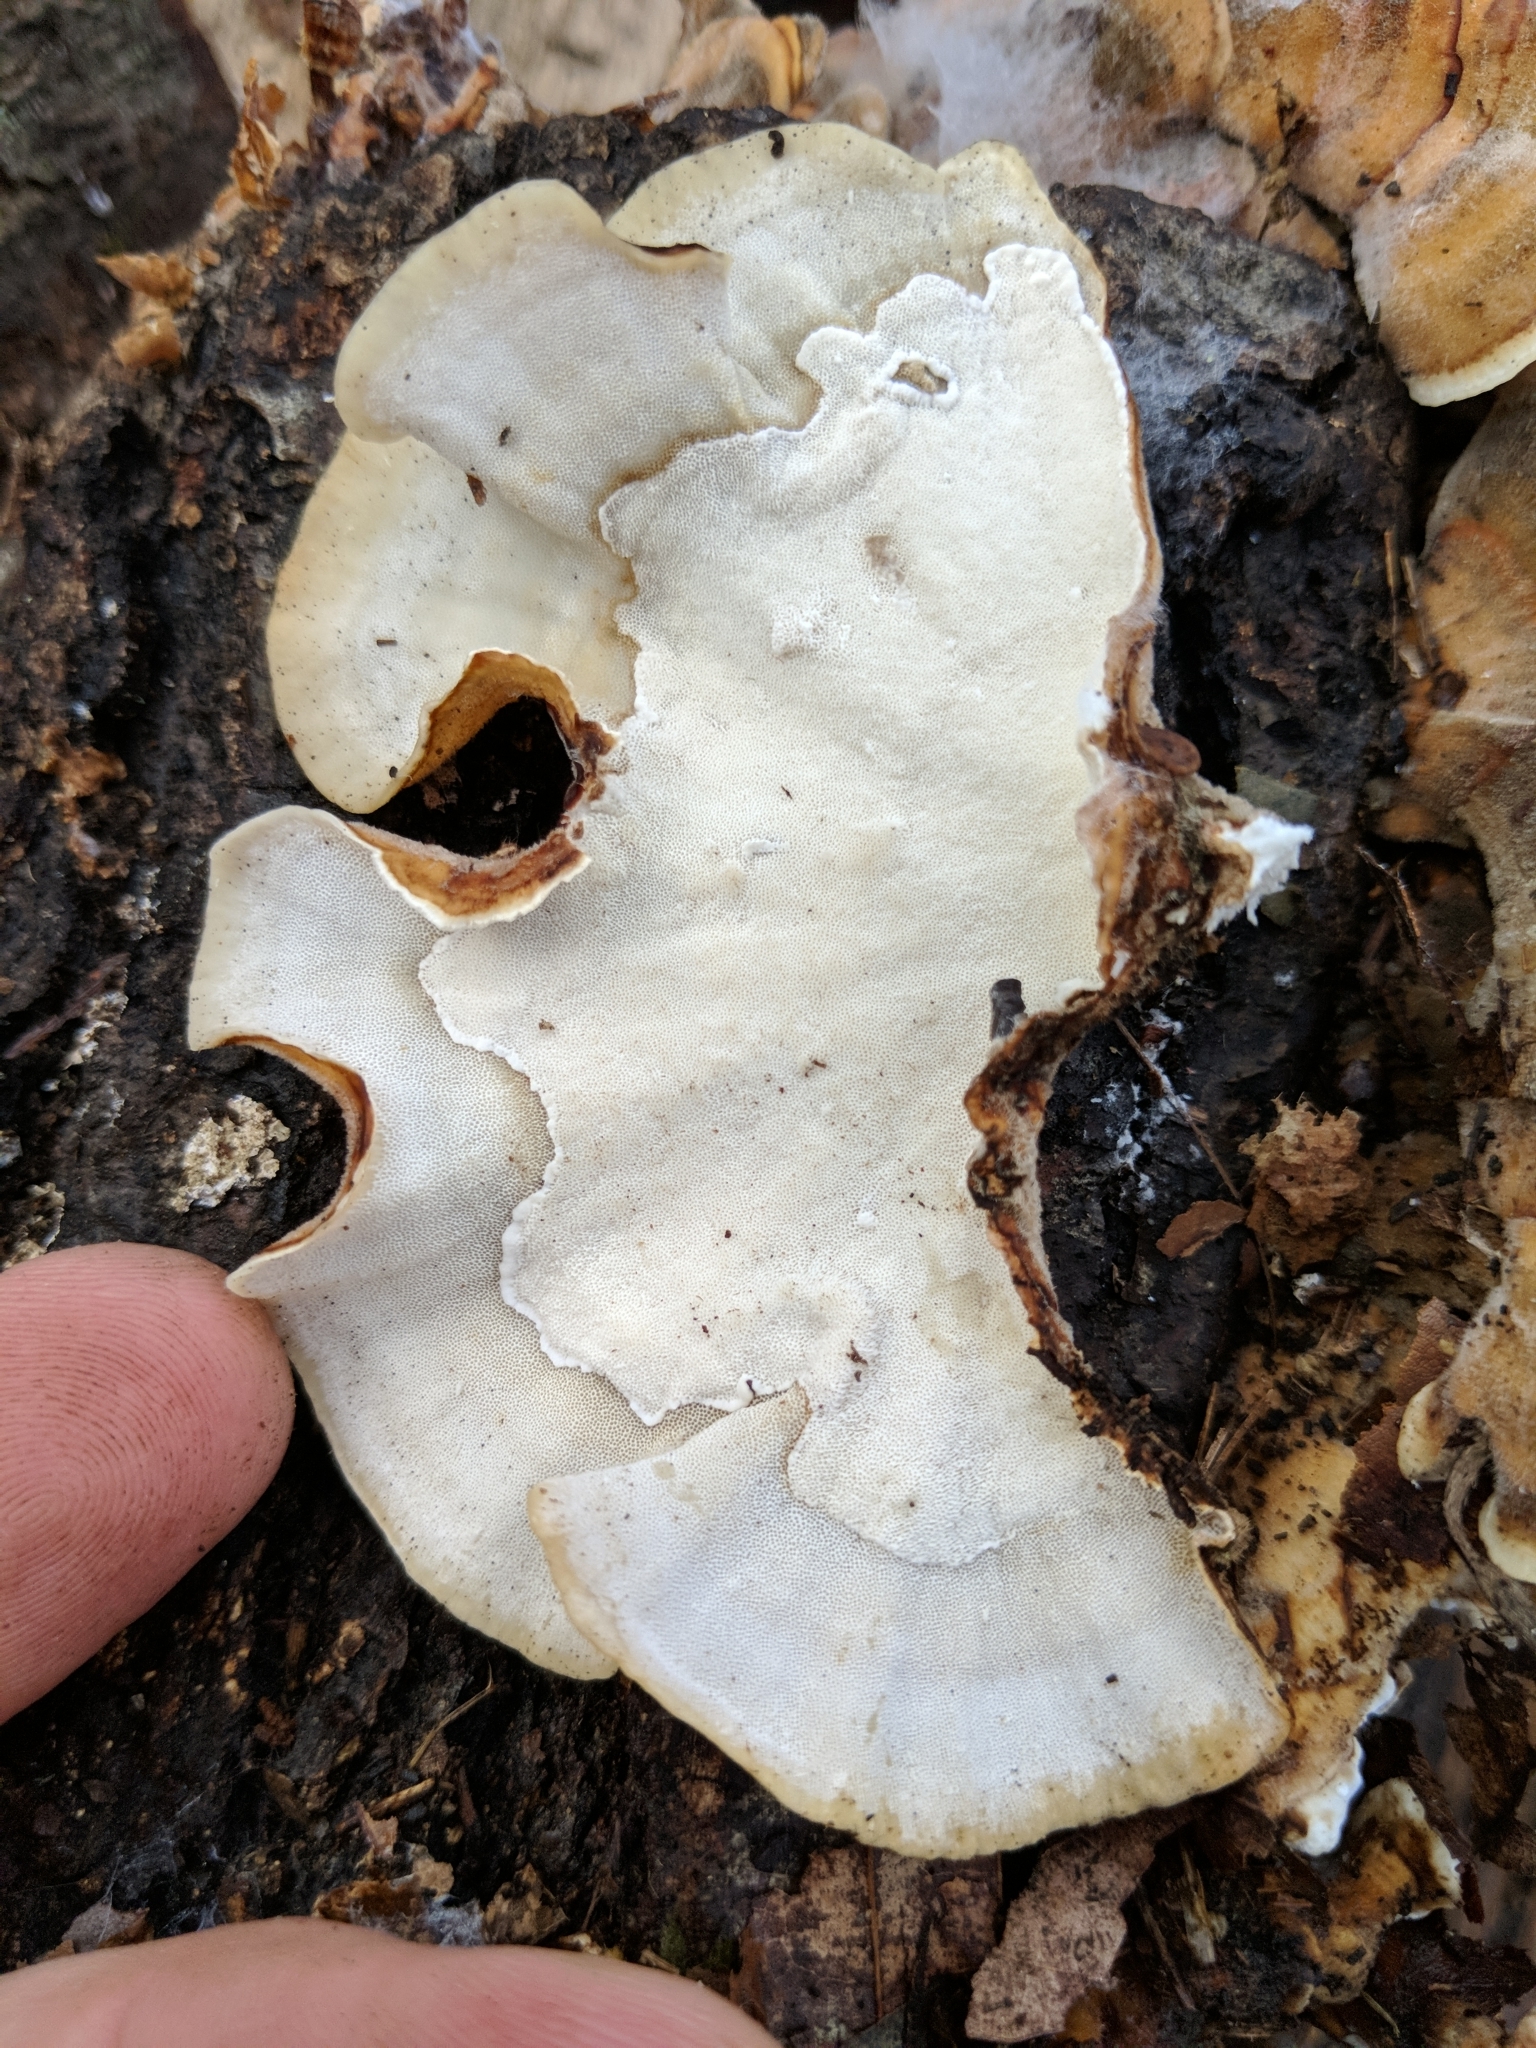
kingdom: Fungi
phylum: Basidiomycota
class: Agaricomycetes
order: Polyporales
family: Polyporaceae
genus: Trametes
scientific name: Trametes versicolor
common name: Turkeytail
